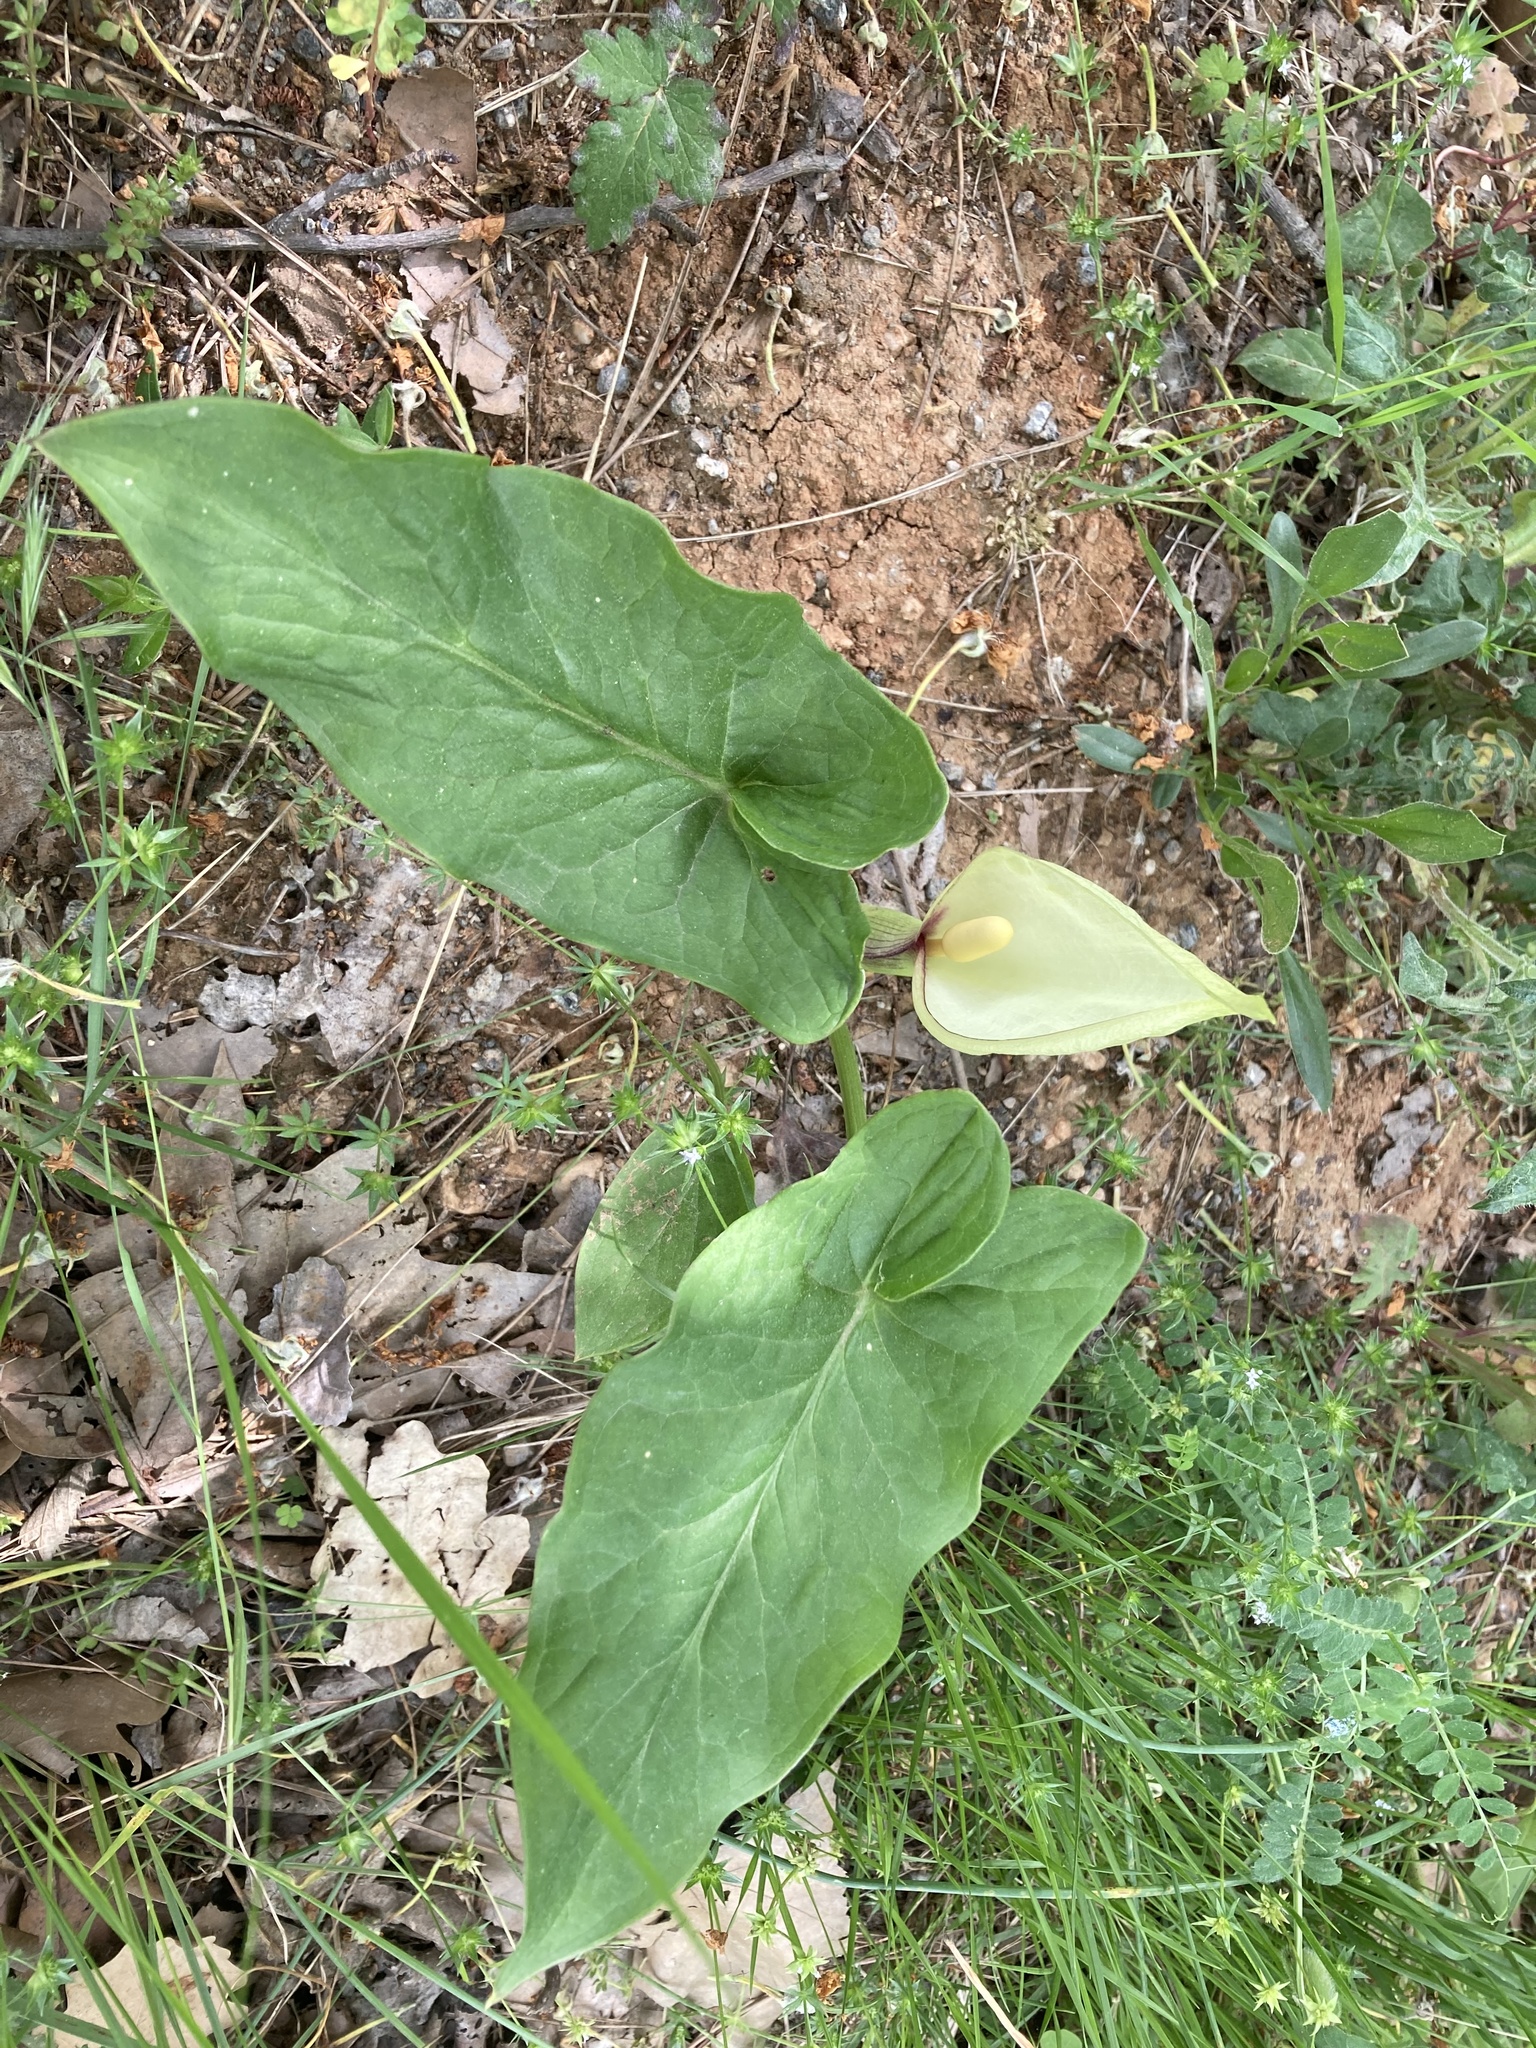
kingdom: Plantae
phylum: Tracheophyta
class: Liliopsida
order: Alismatales
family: Araceae
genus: Arum
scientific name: Arum italicum
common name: Italian lords-and-ladies
